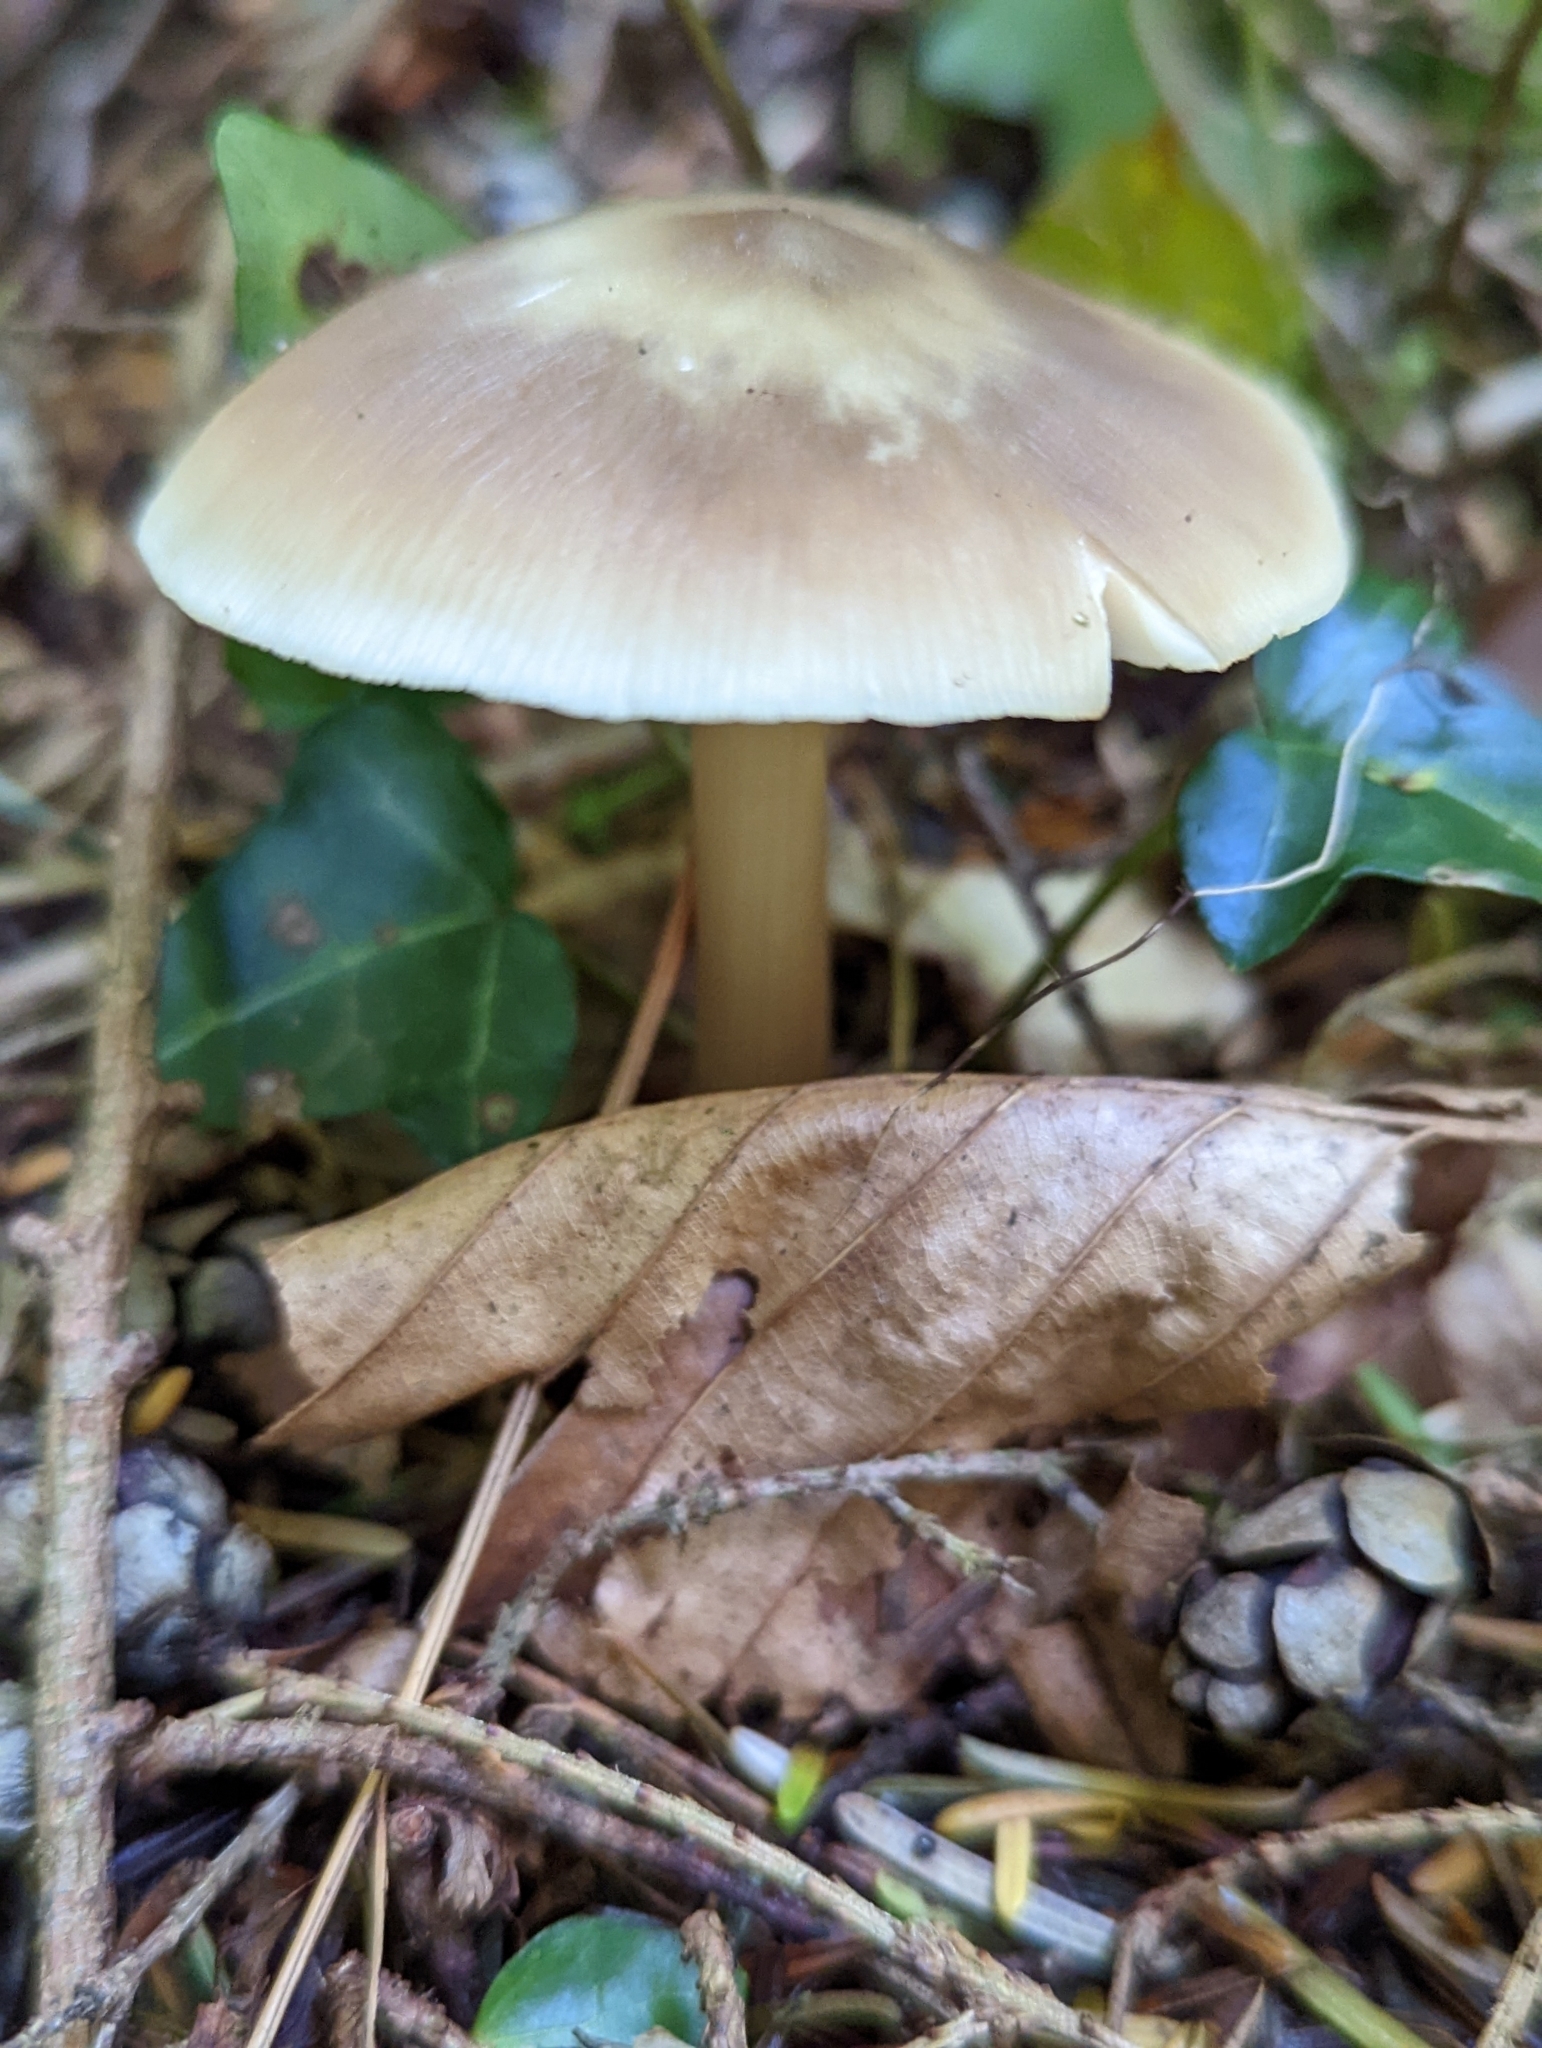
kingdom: Fungi
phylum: Basidiomycota
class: Agaricomycetes
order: Agaricales
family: Omphalotaceae
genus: Rhodocollybia
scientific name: Rhodocollybia butyracea
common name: Butter cap
